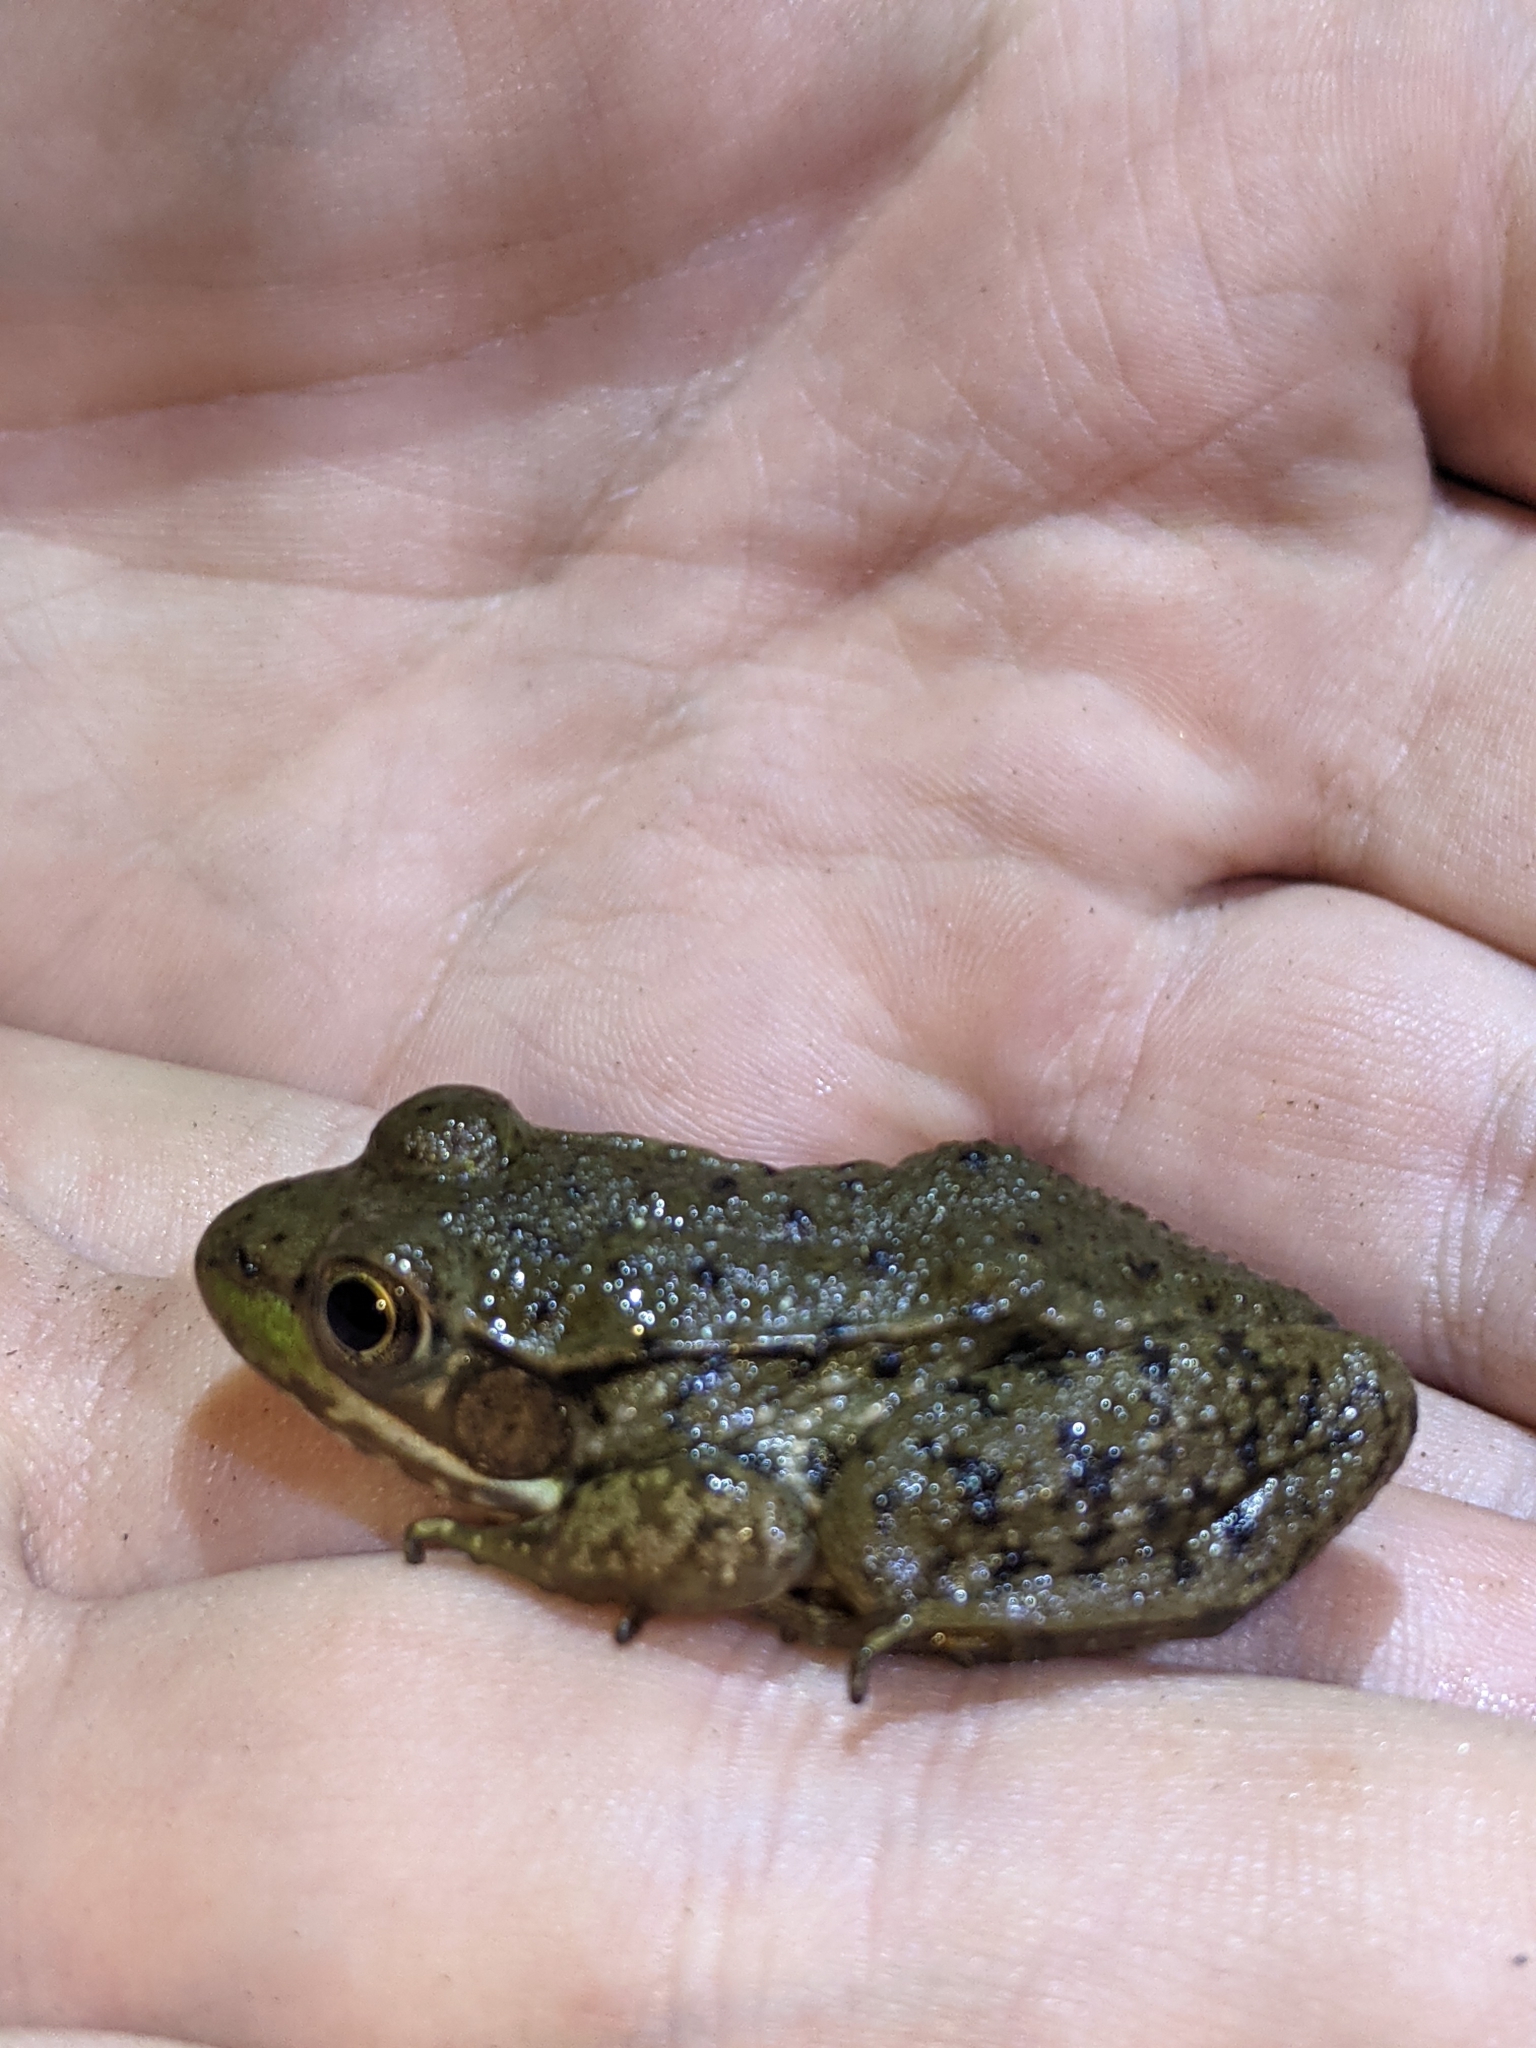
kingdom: Animalia
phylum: Chordata
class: Amphibia
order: Anura
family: Ranidae
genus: Lithobates
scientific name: Lithobates clamitans
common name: Green frog
